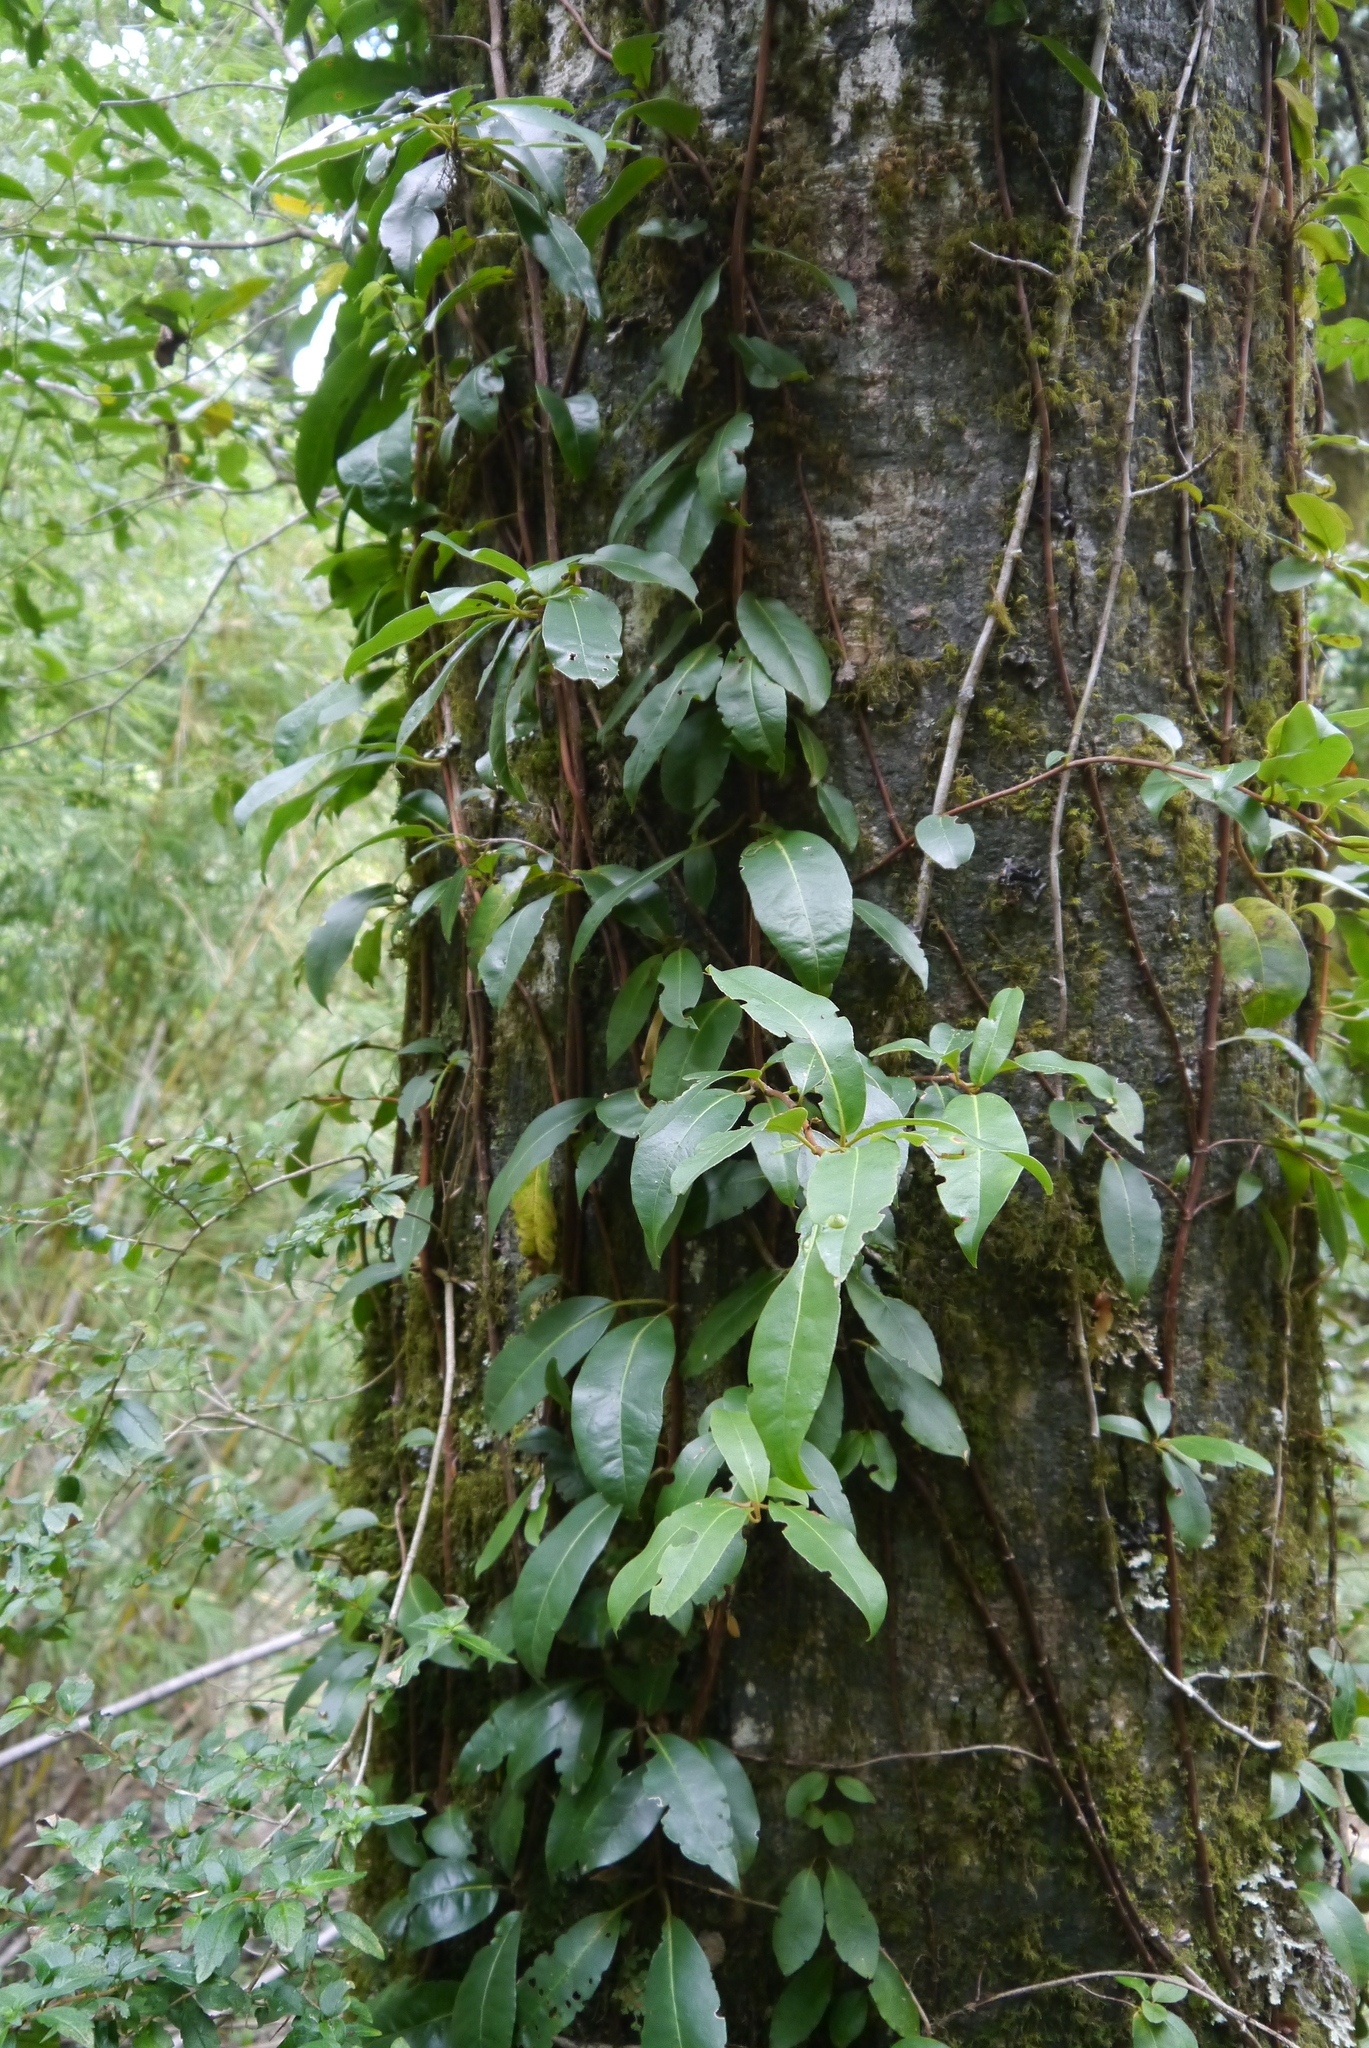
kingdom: Plantae
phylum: Tracheophyta
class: Magnoliopsida
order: Cornales
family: Hydrangeaceae
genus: Hydrangea
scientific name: Hydrangea serratifolia
